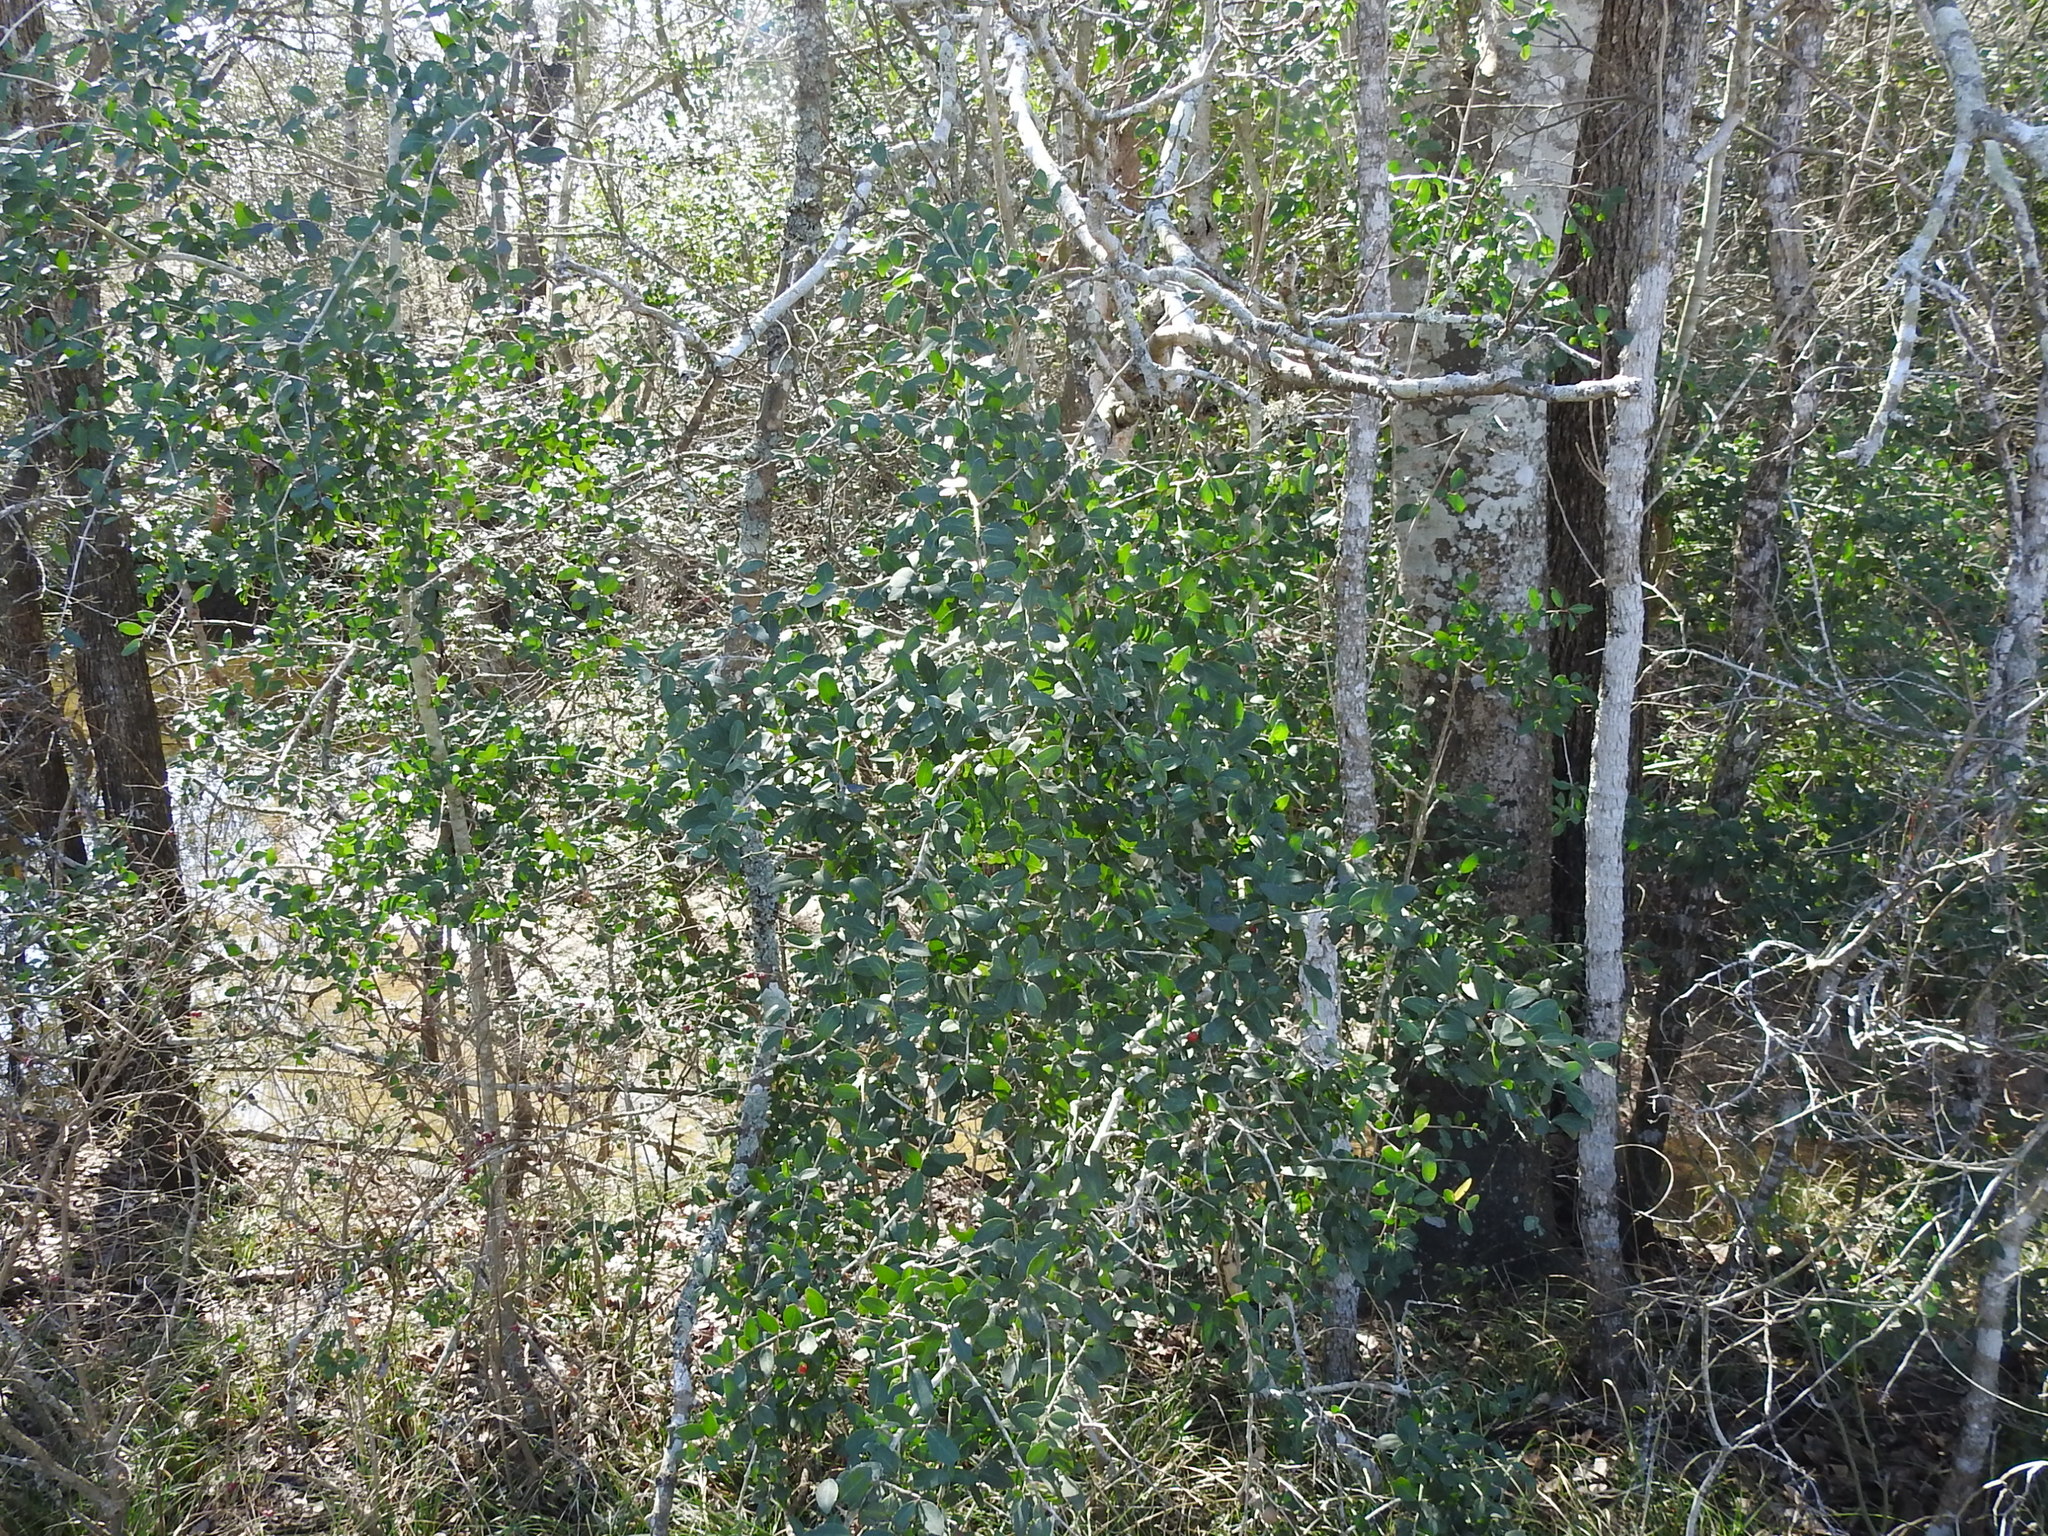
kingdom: Plantae
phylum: Tracheophyta
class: Magnoliopsida
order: Aquifoliales
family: Aquifoliaceae
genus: Ilex
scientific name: Ilex vomitoria
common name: Yaupon holly
